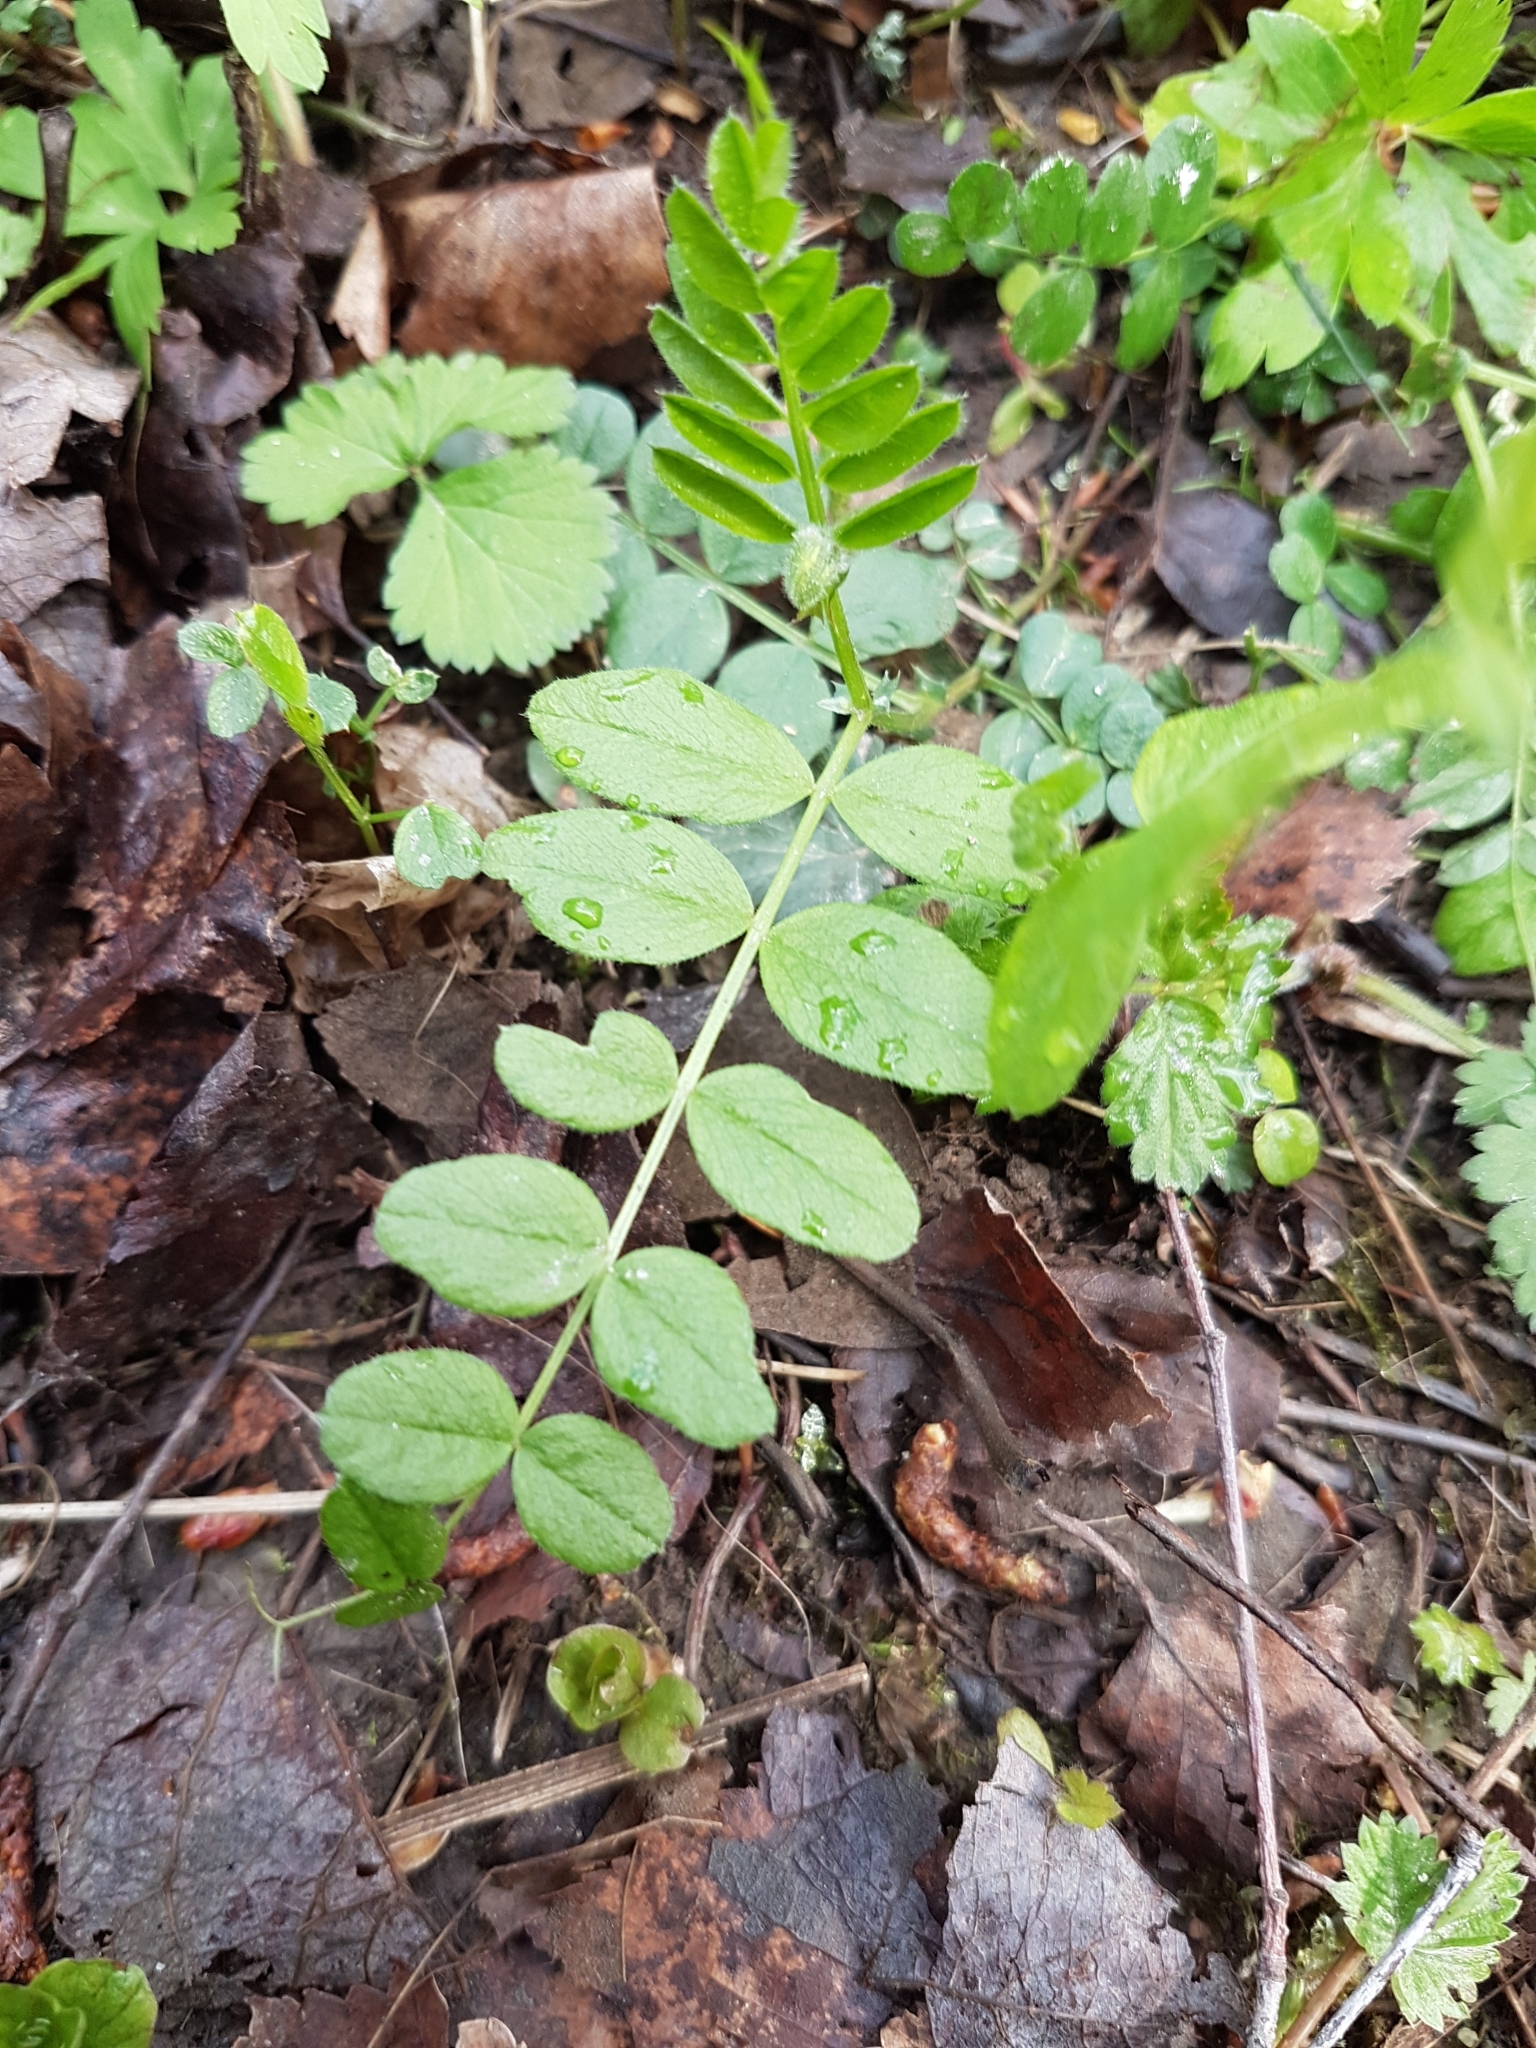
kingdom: Plantae
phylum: Tracheophyta
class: Magnoliopsida
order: Fabales
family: Fabaceae
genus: Vicia
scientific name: Vicia sepium
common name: Bush vetch
